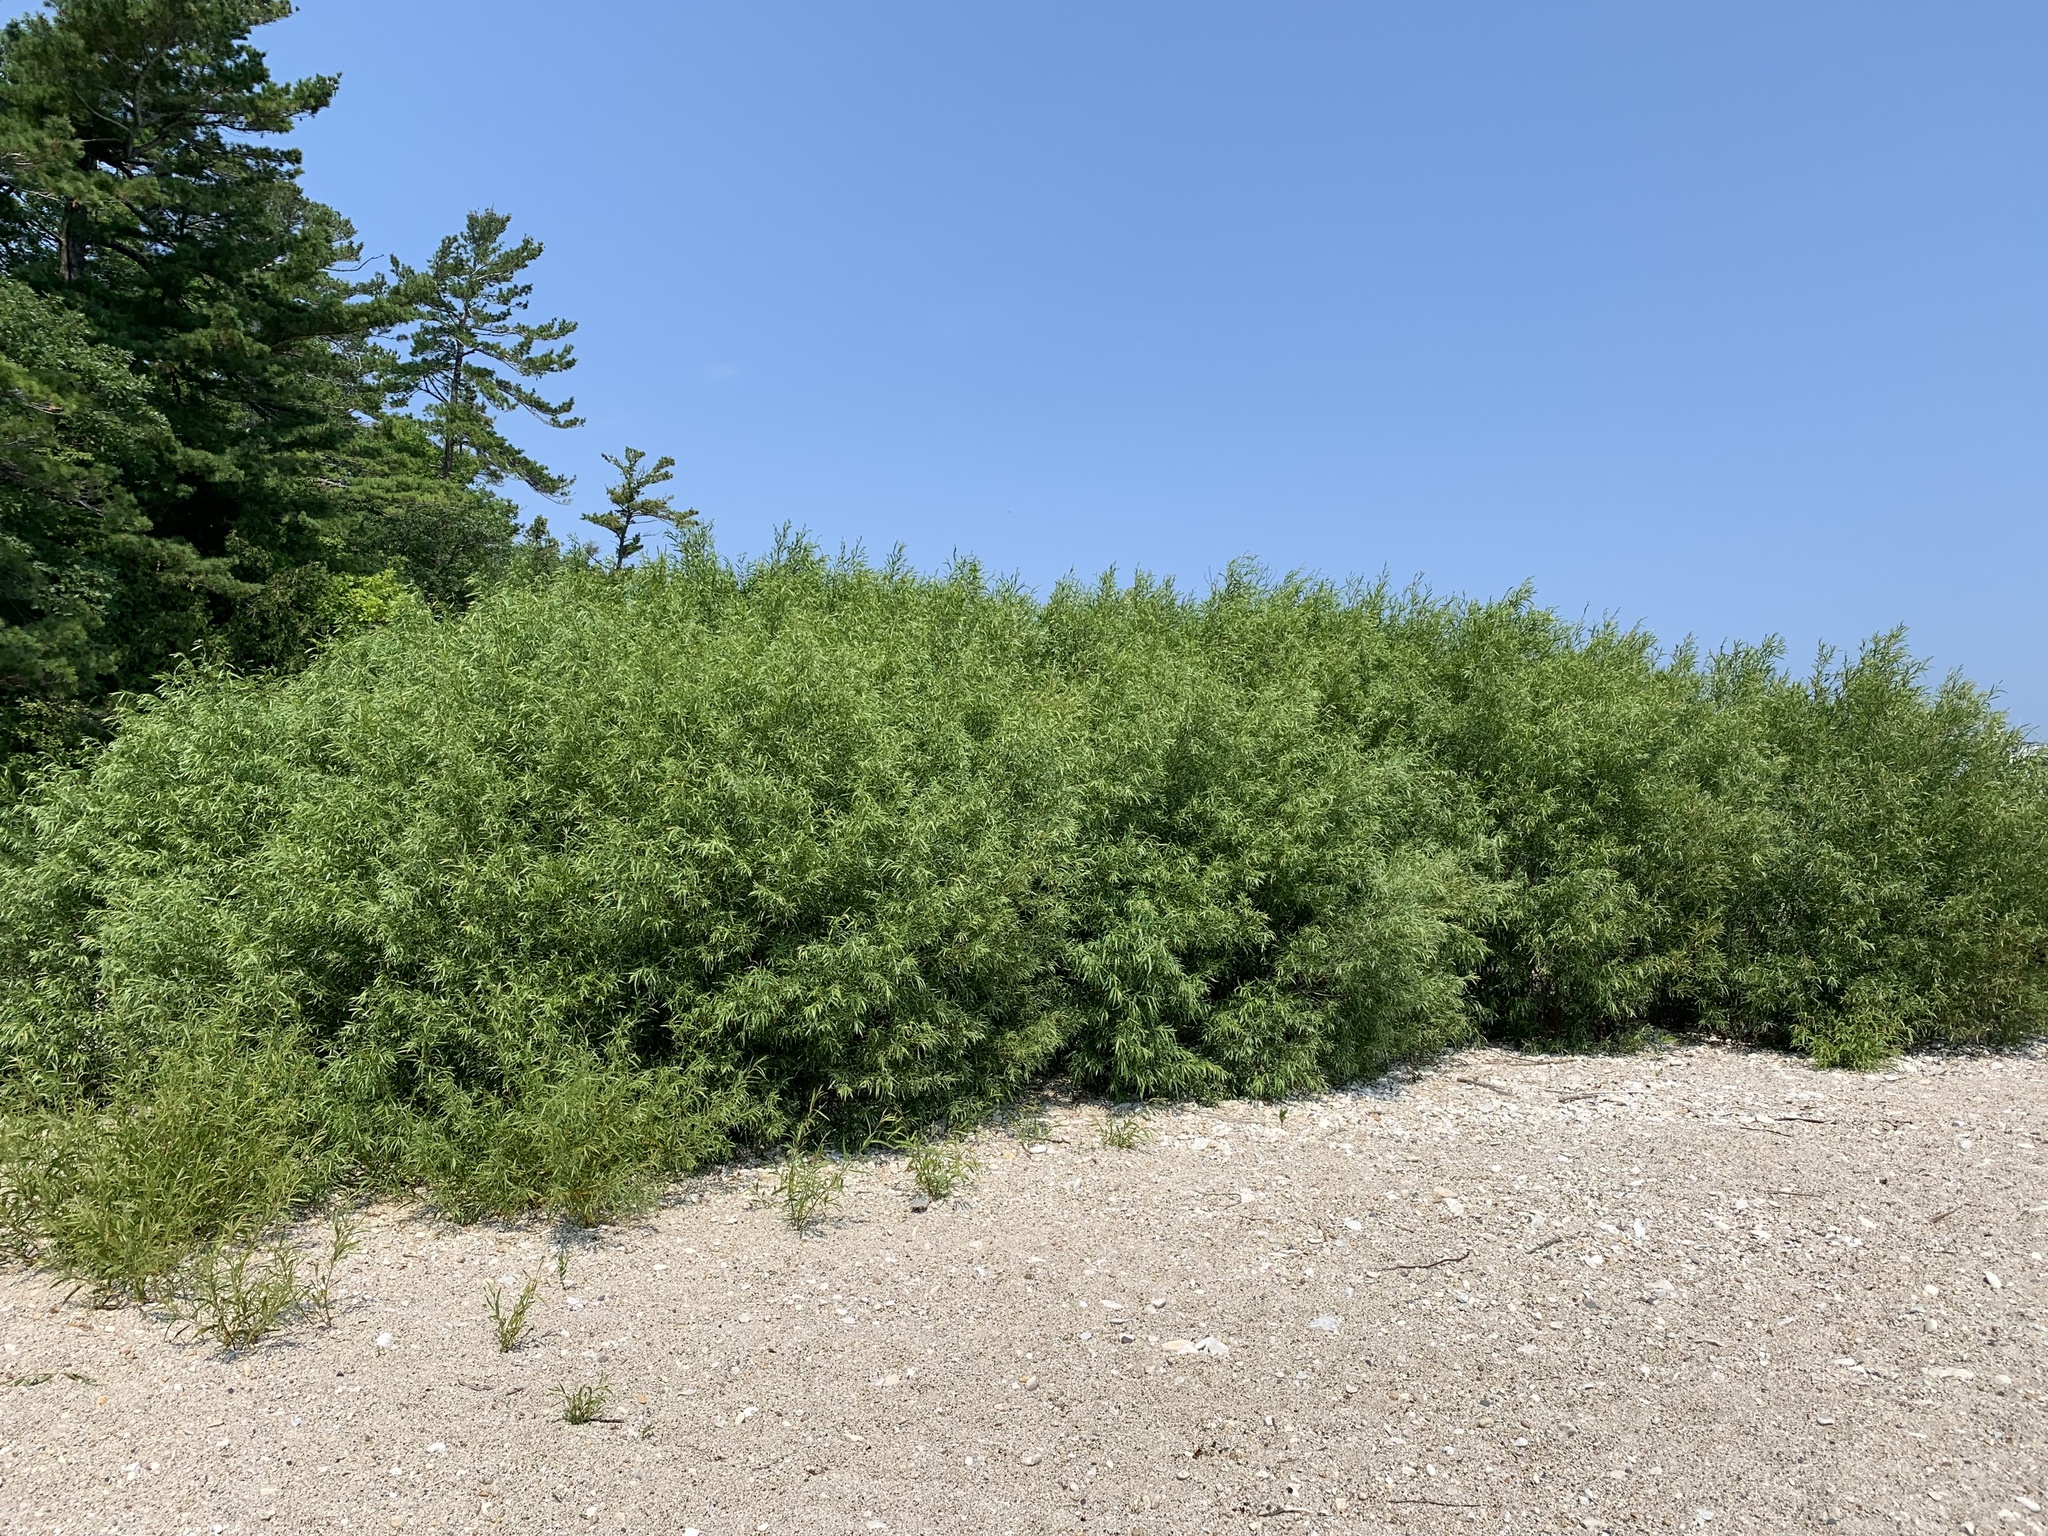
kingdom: Plantae
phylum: Tracheophyta
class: Magnoliopsida
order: Malpighiales
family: Salicaceae
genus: Salix
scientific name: Salix interior
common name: Sandbar willow
